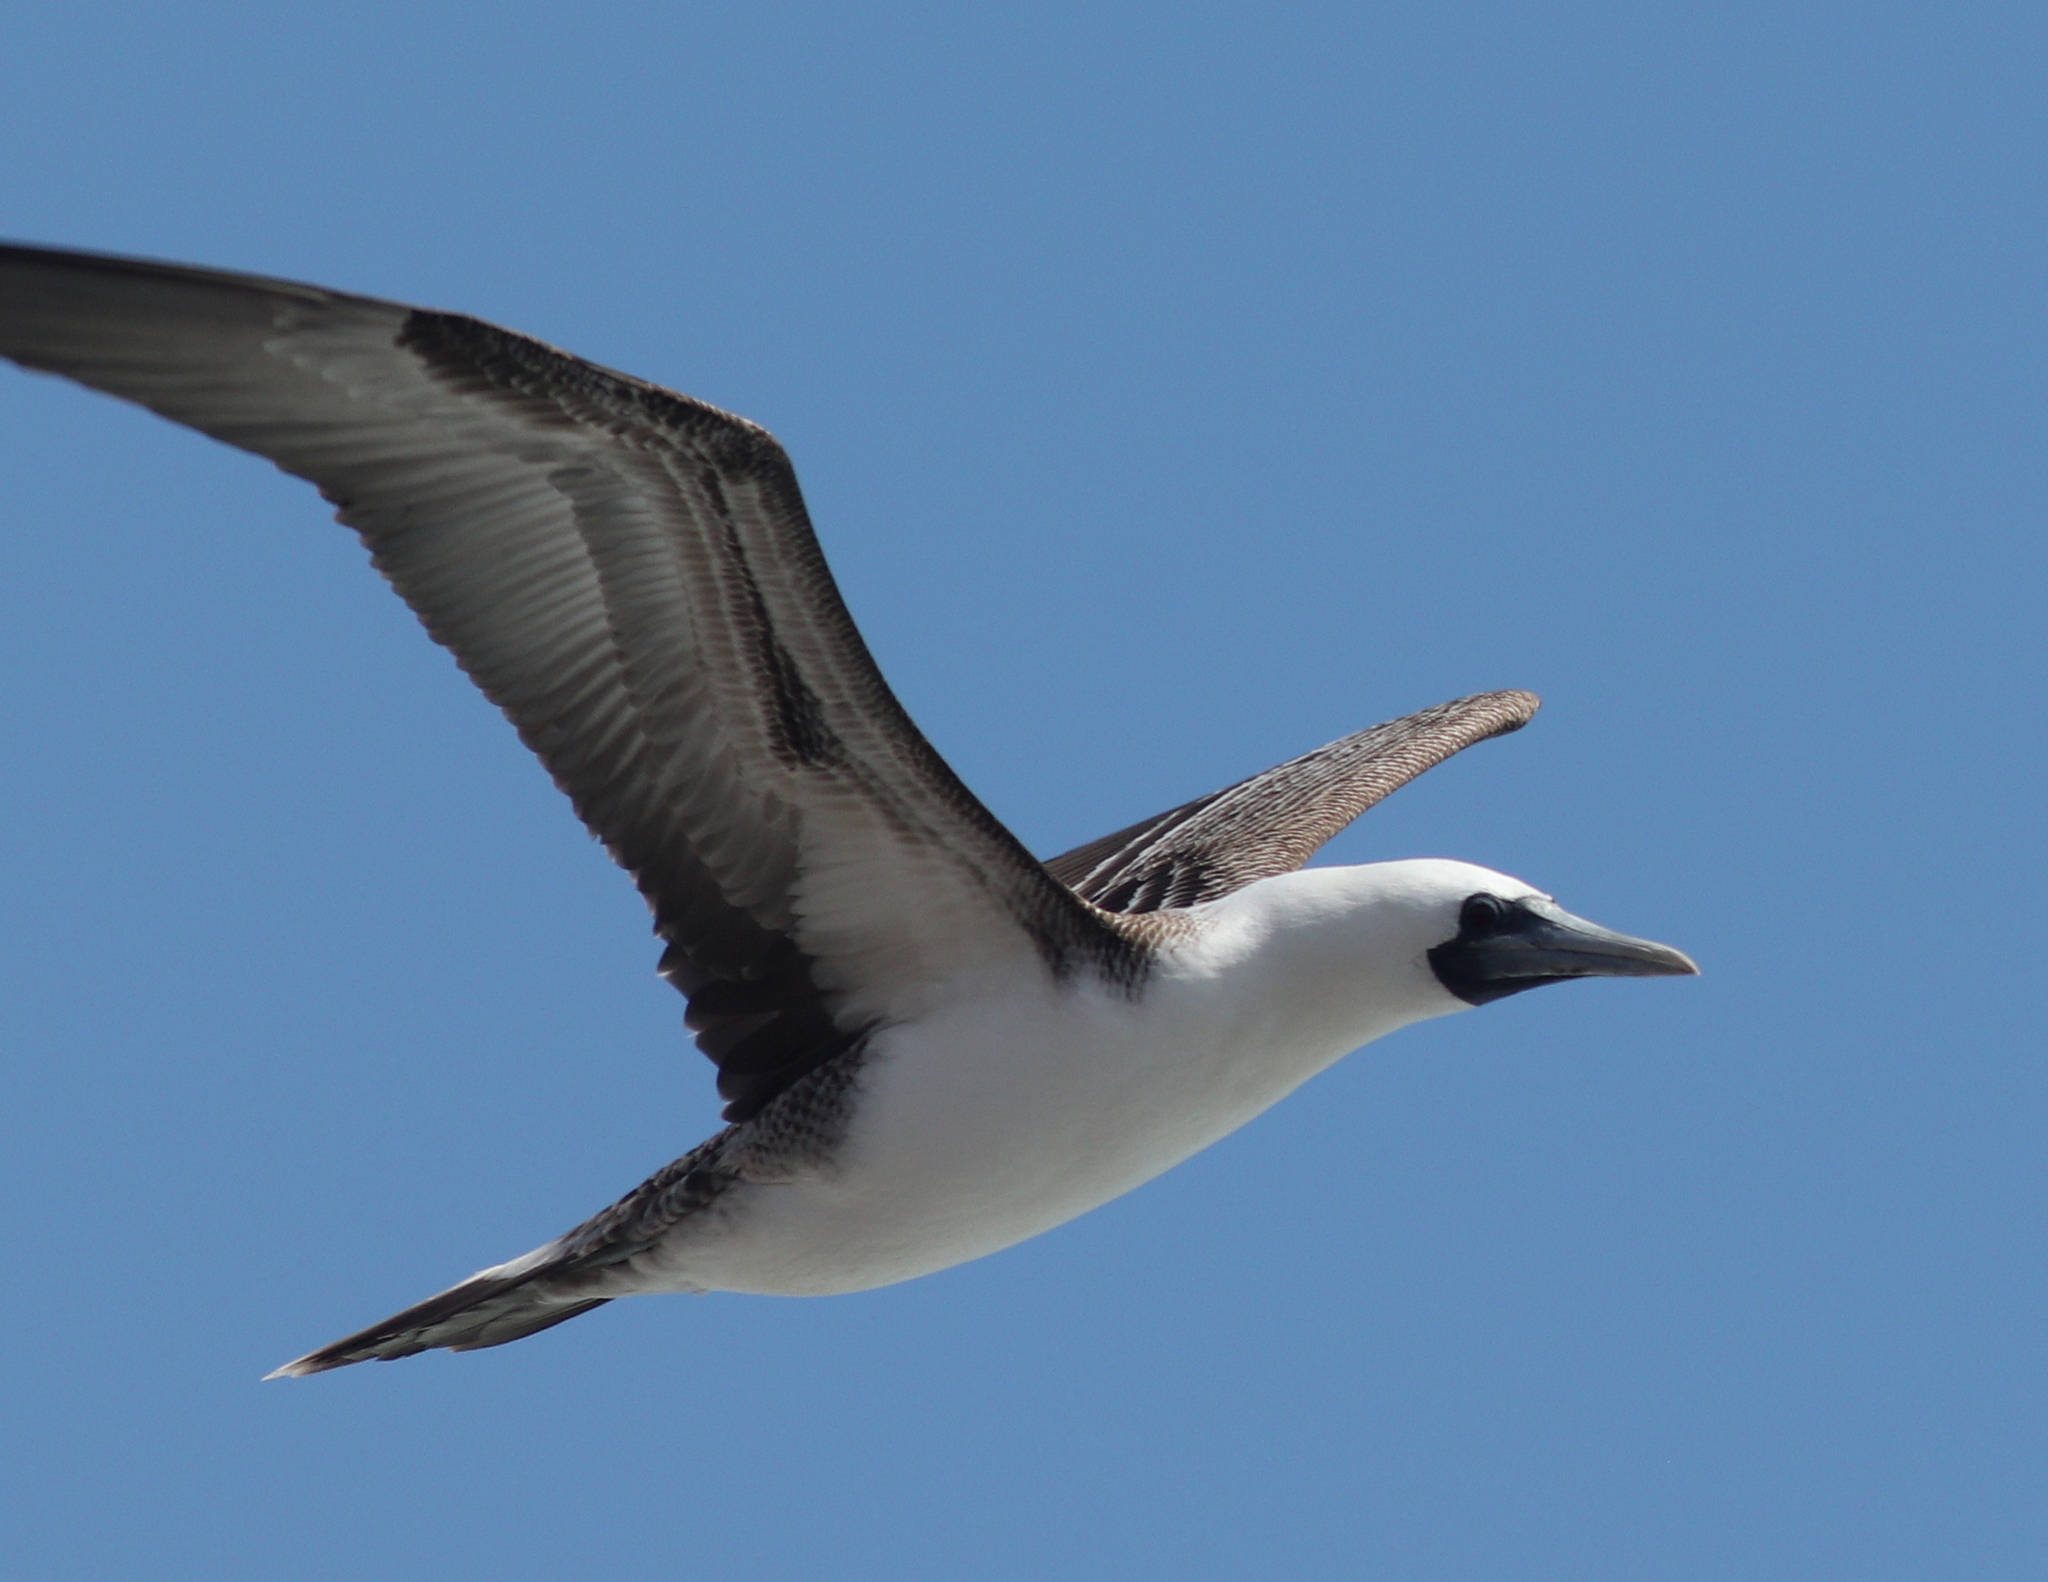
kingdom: Animalia
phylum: Chordata
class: Aves
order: Suliformes
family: Sulidae
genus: Sula
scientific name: Sula variegata
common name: Peruvian booby
